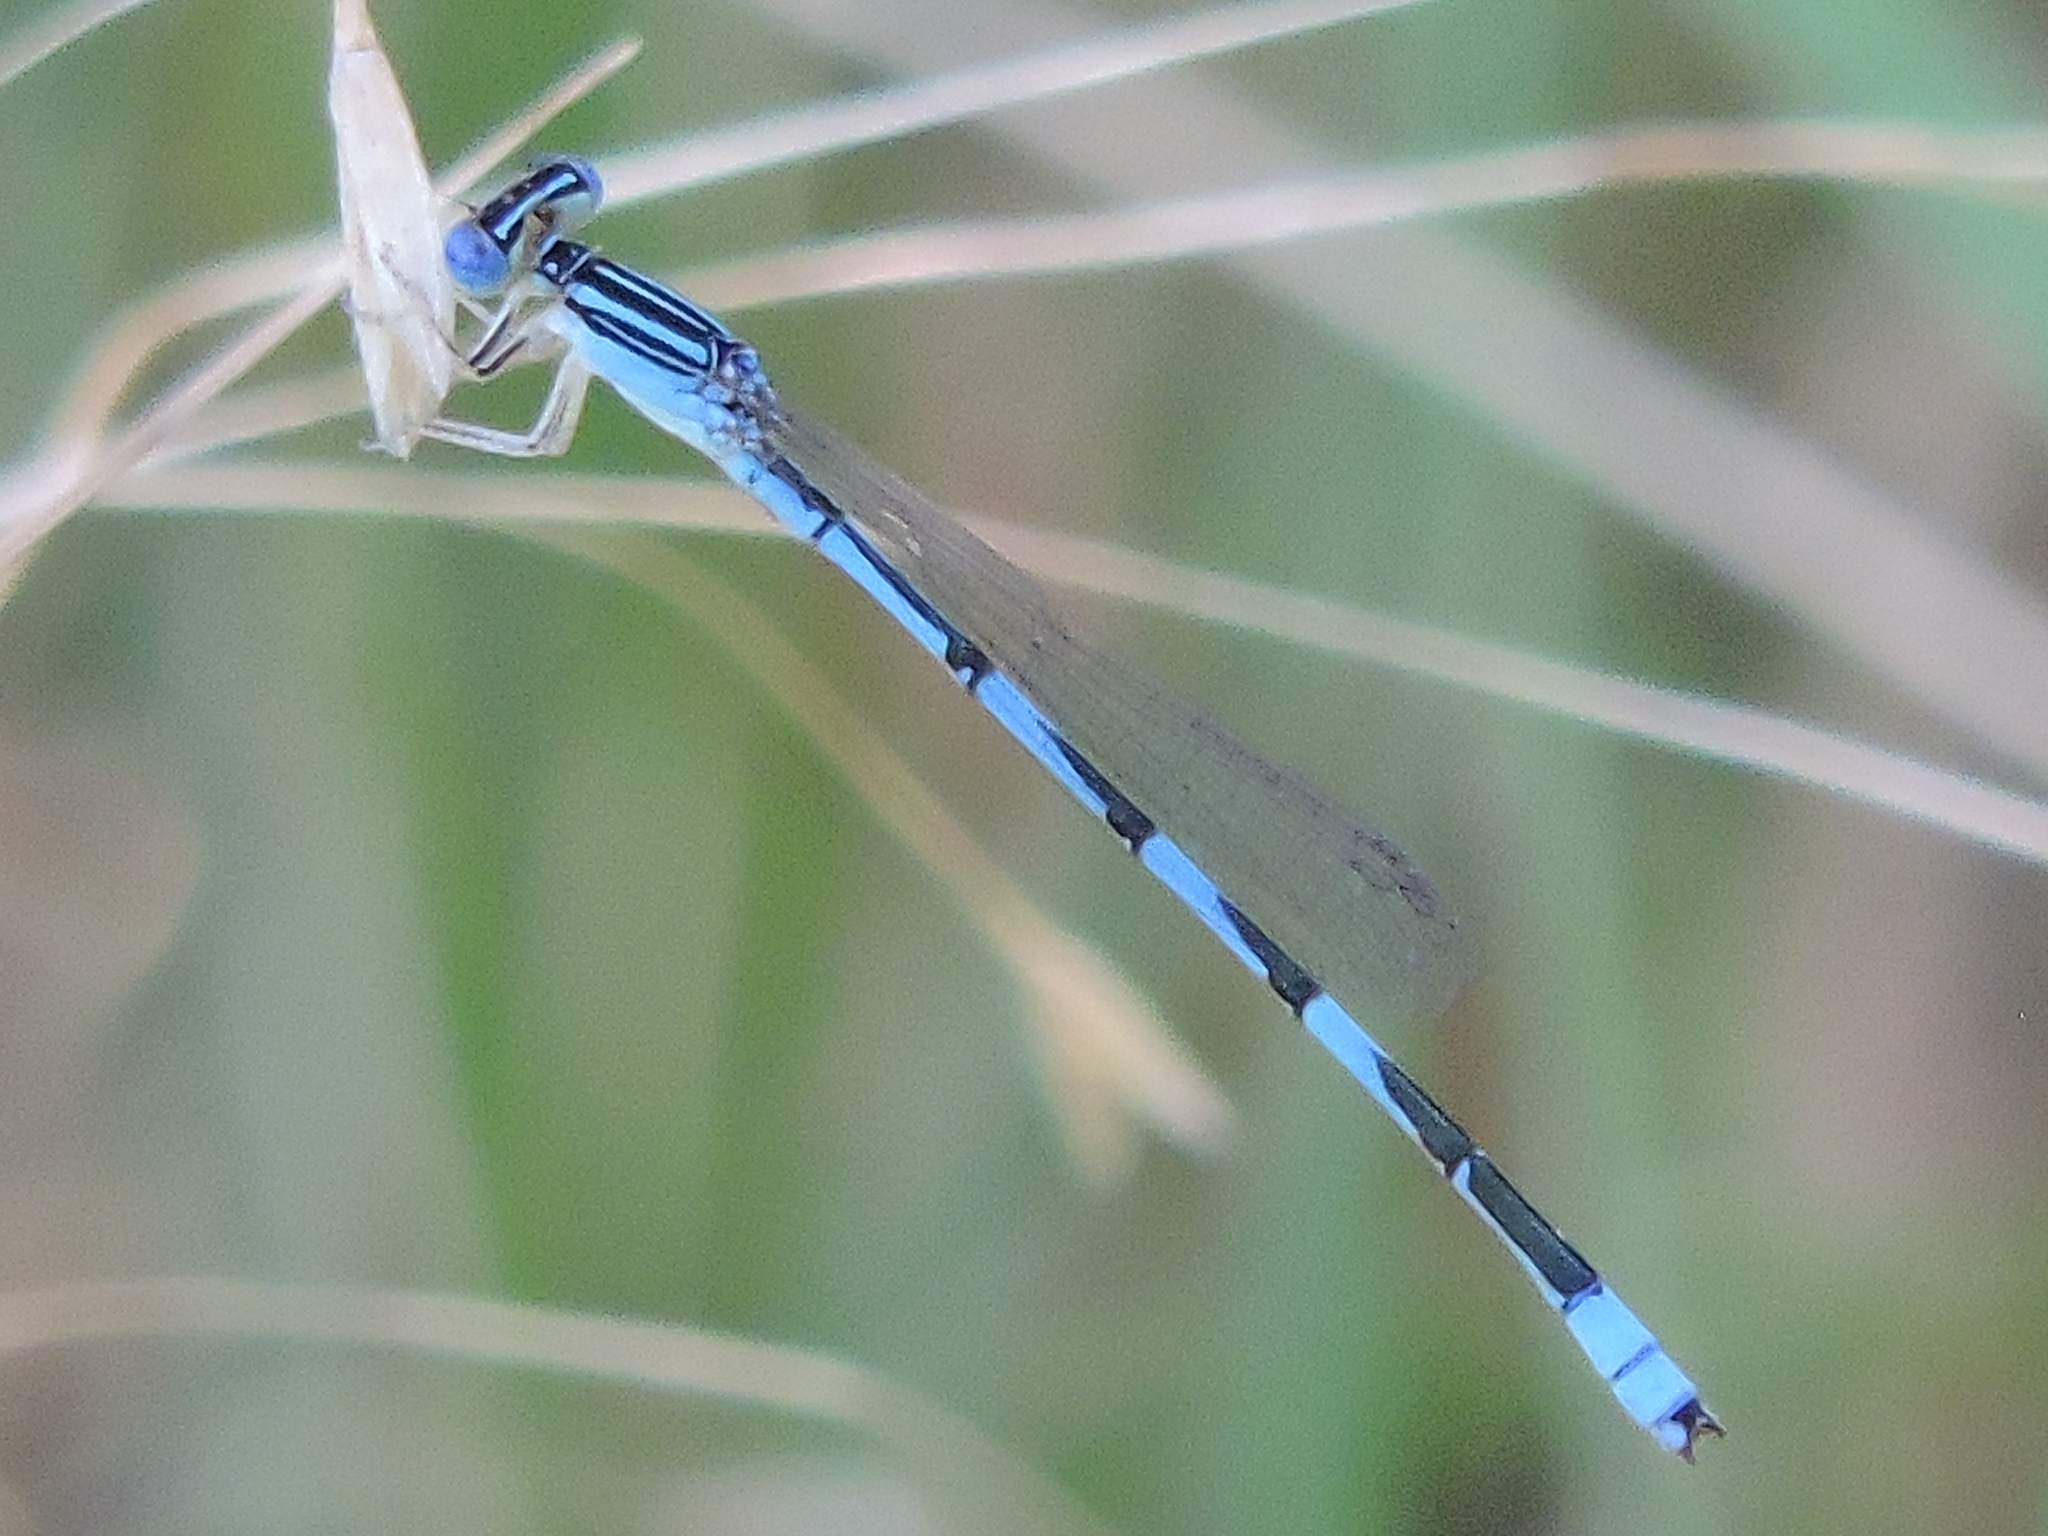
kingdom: Animalia
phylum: Arthropoda
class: Insecta
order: Odonata
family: Coenagrionidae
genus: Enallagma
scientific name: Enallagma basidens
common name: Double-striped bluet
